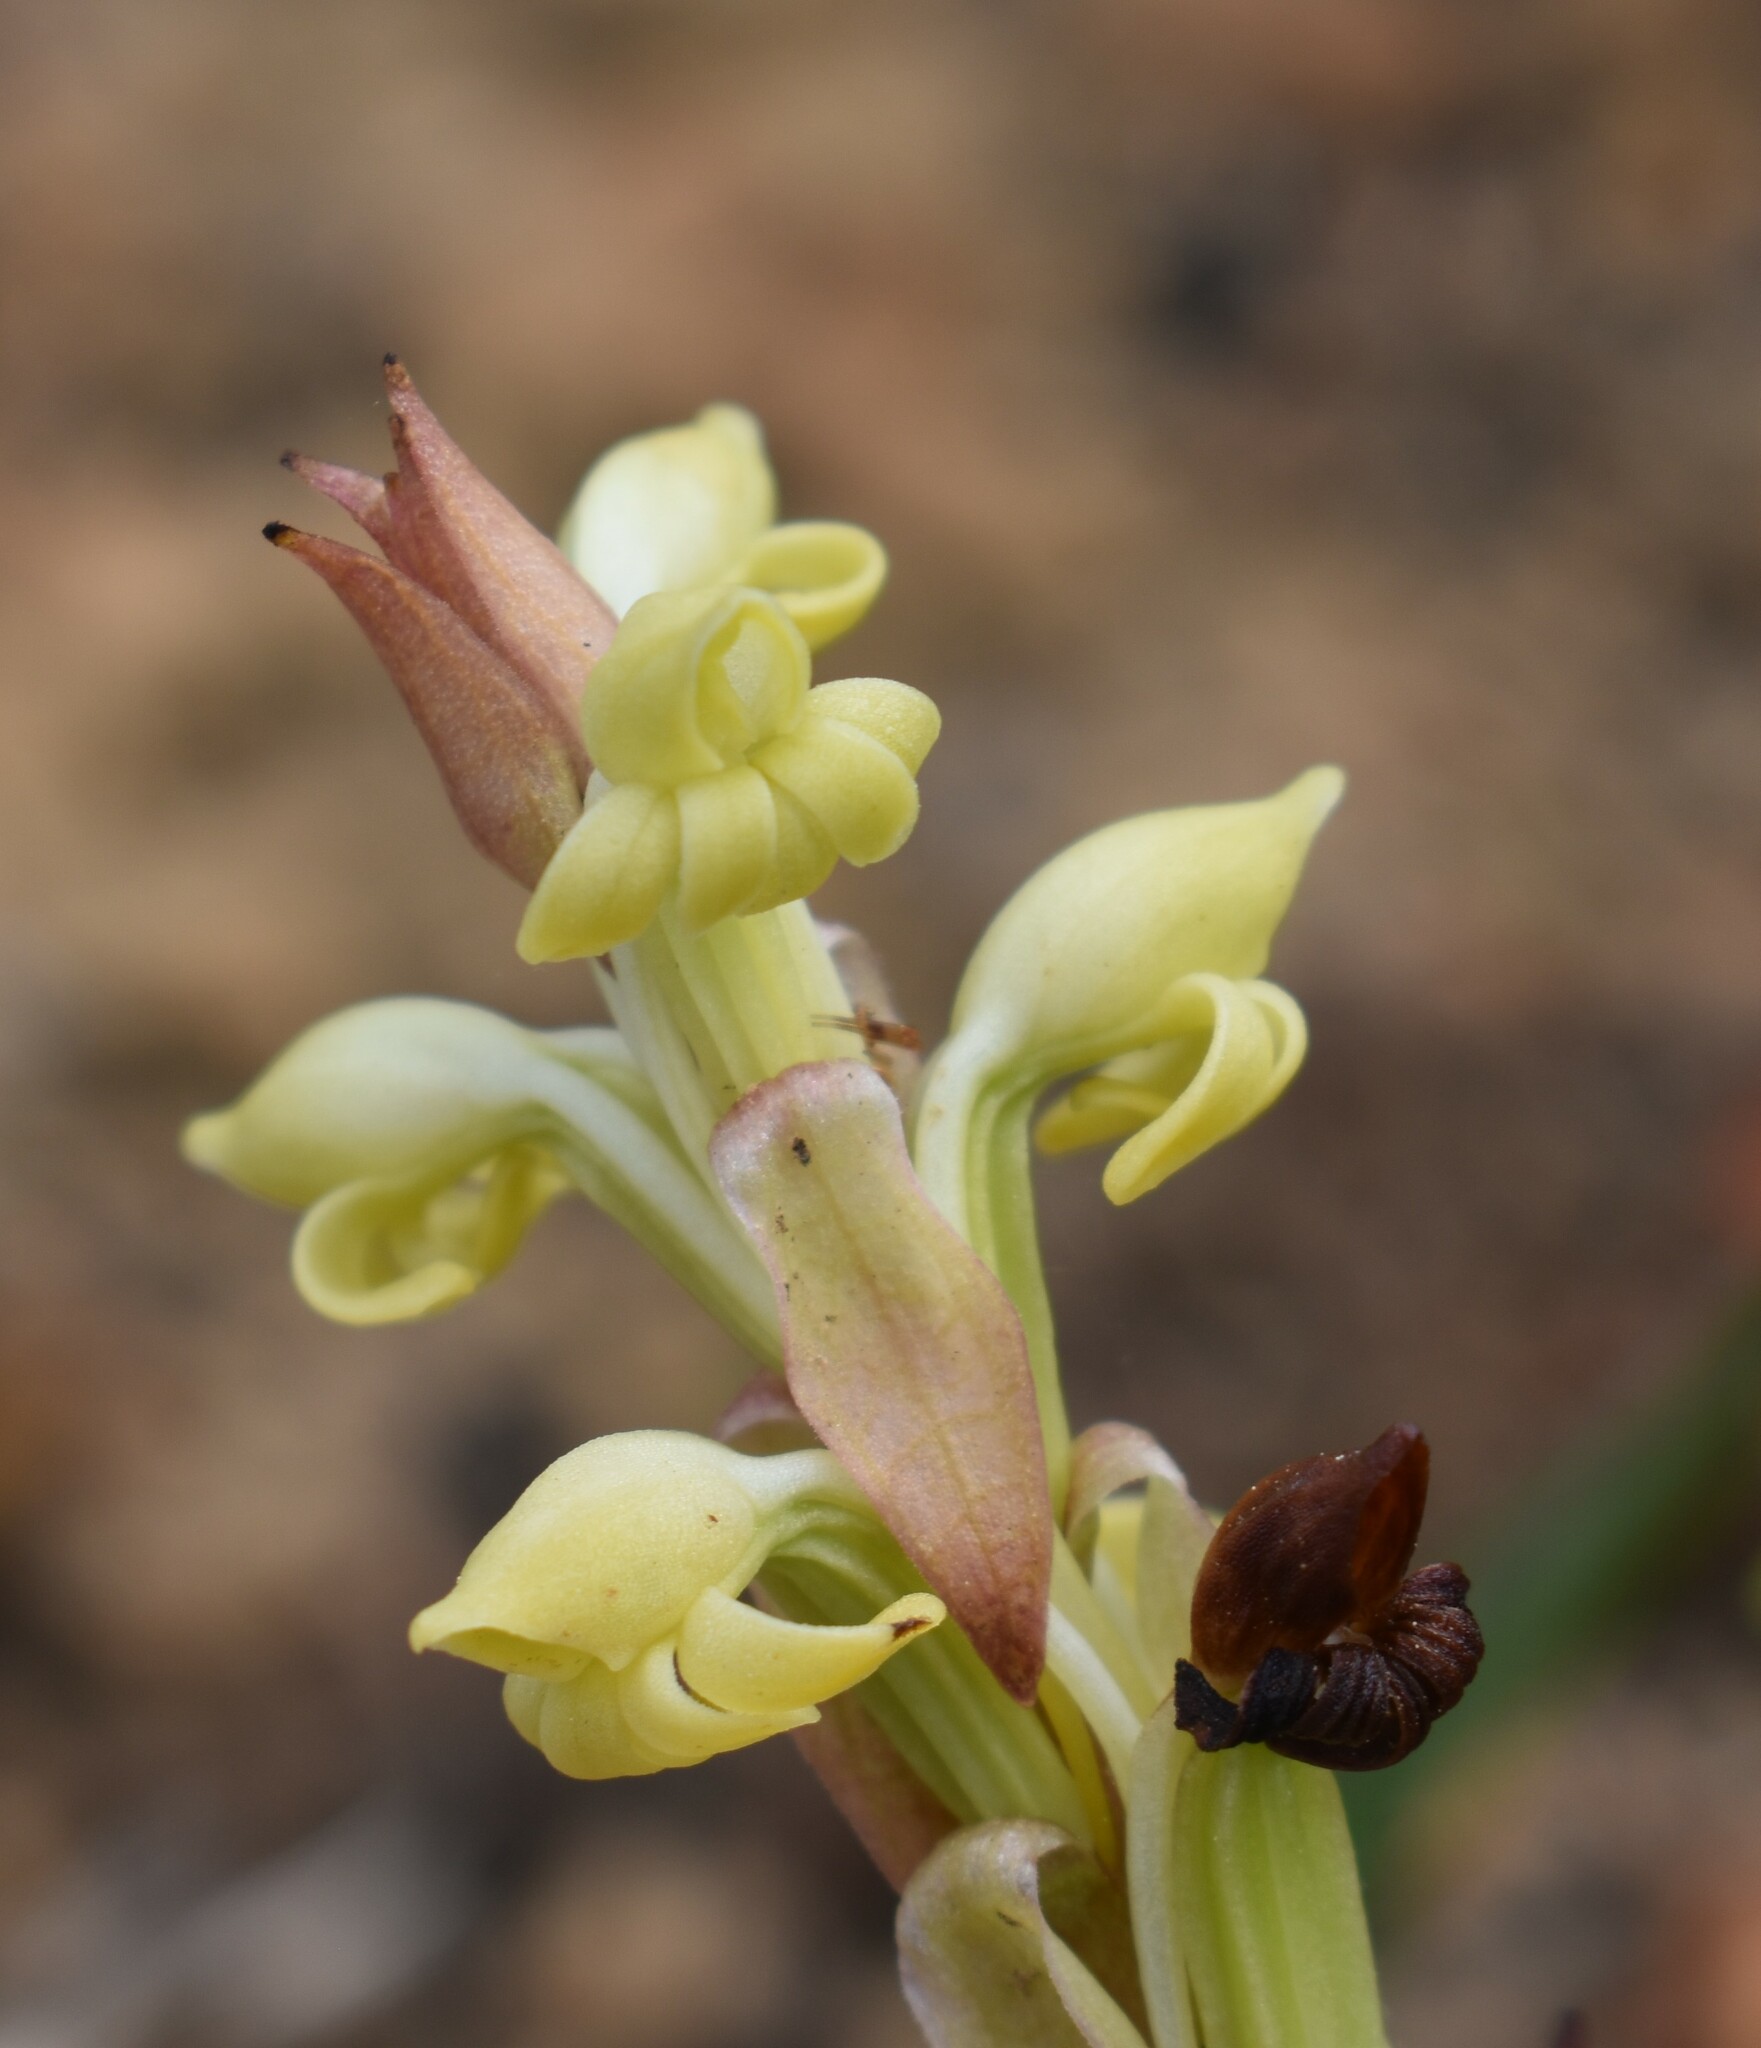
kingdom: Plantae
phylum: Tracheophyta
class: Liliopsida
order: Asparagales
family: Orchidaceae
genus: Satyrium
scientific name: Satyrium bicorne
